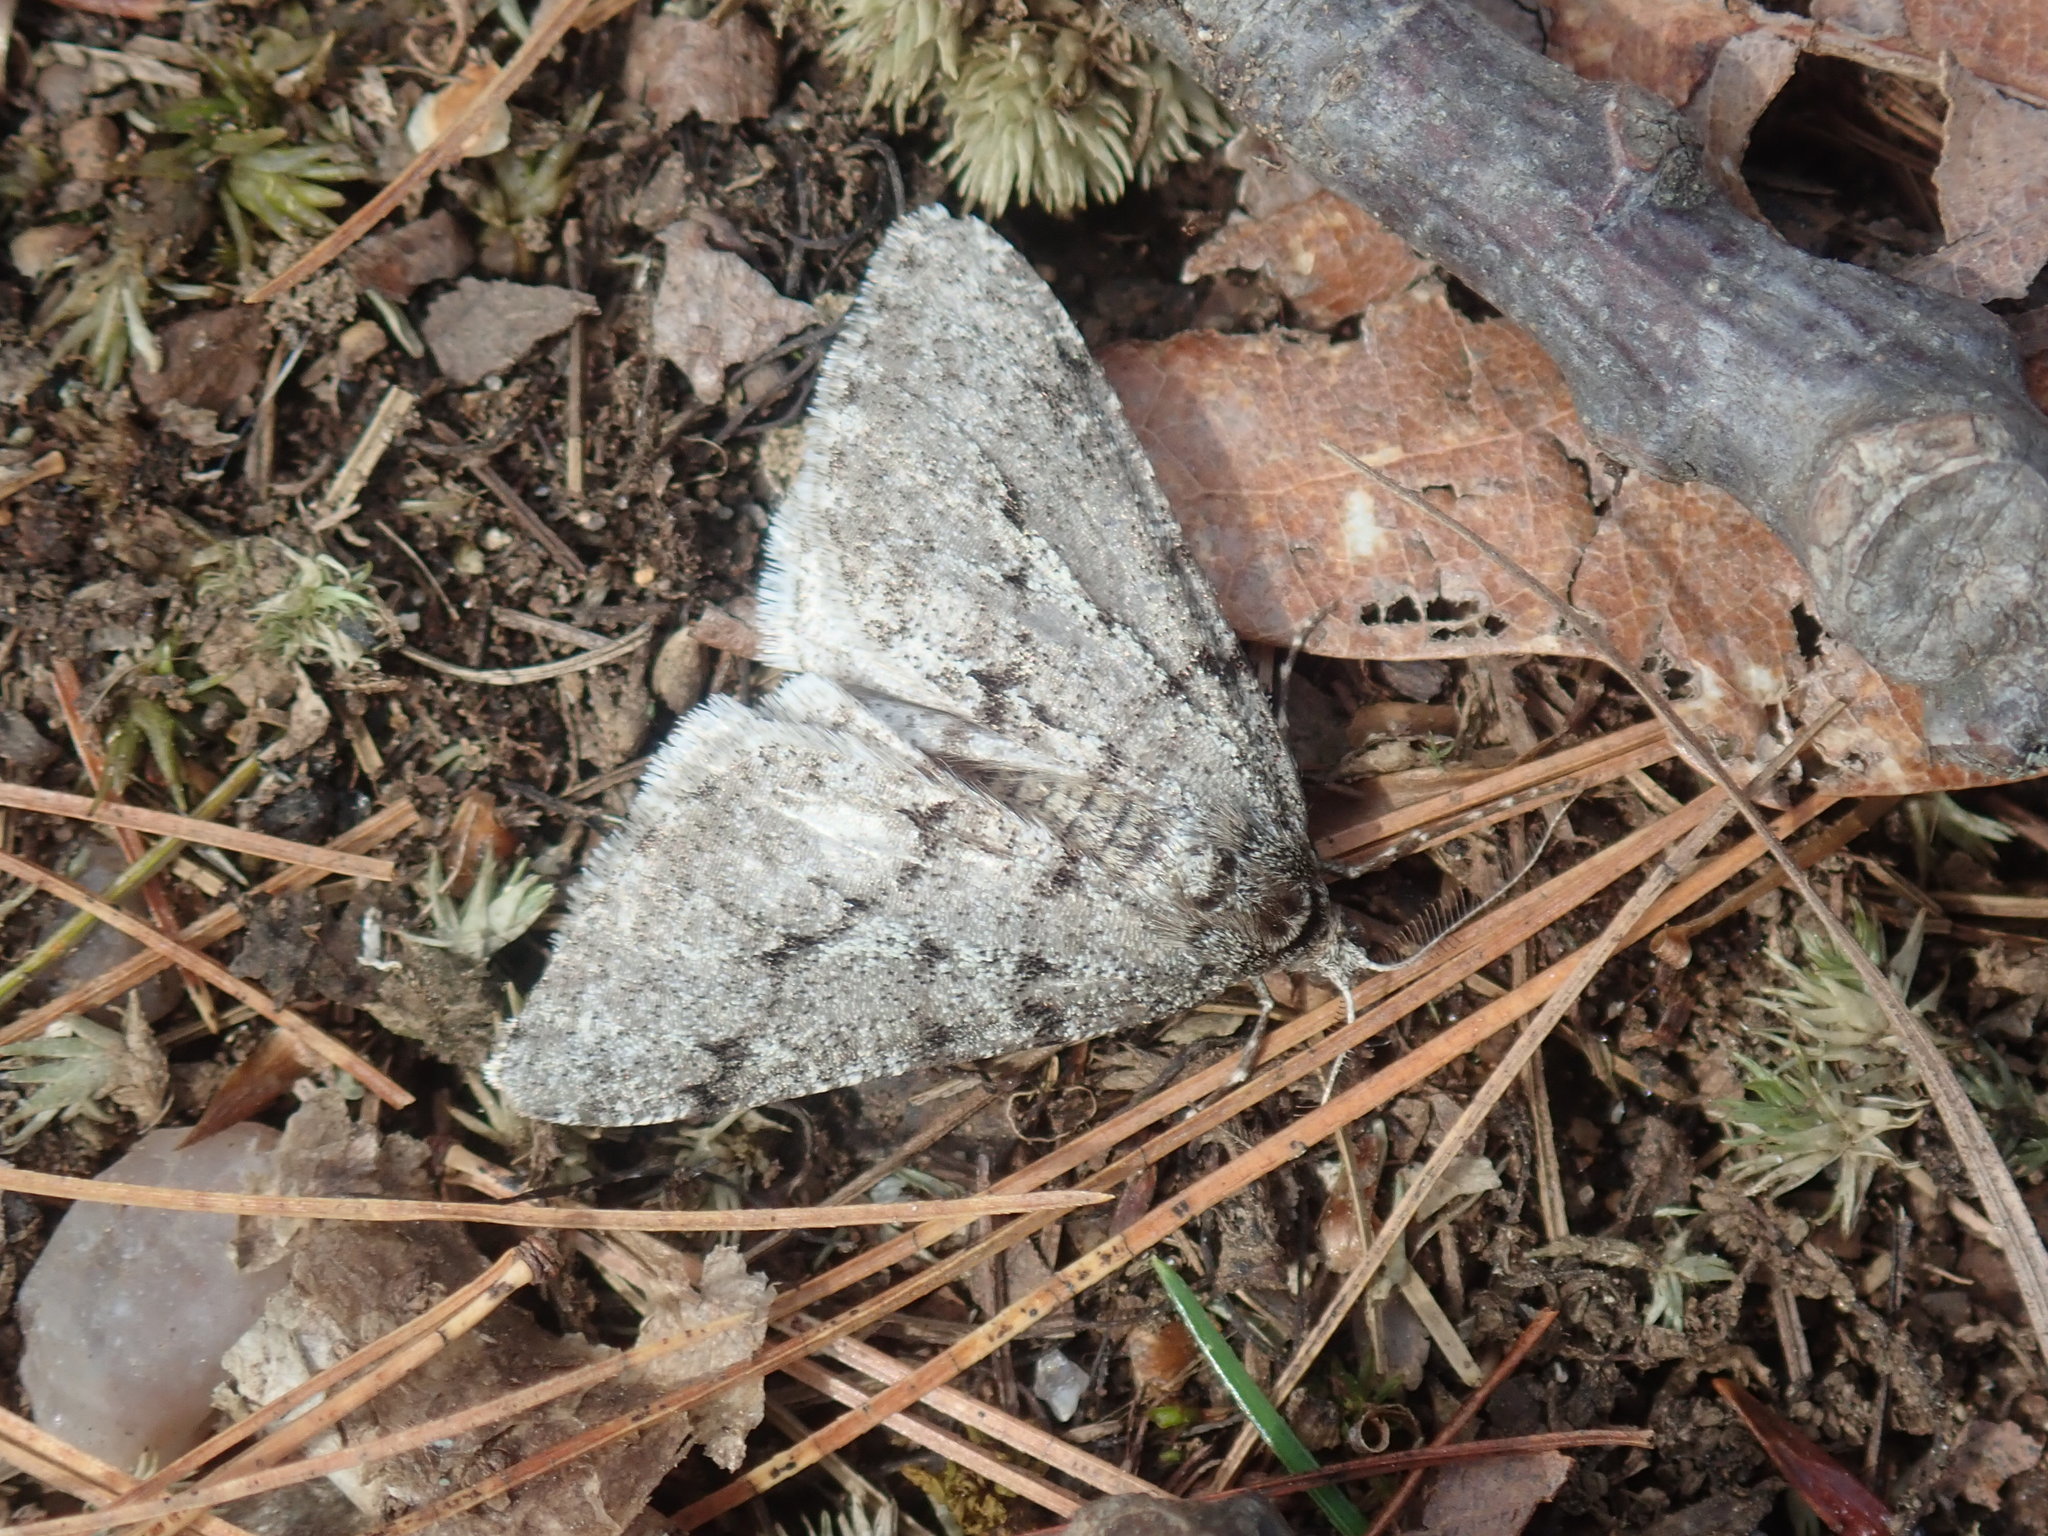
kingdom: Animalia
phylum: Arthropoda
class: Insecta
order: Lepidoptera
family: Geometridae
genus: Phigalia
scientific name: Phigalia strigataria
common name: Small phigalia
